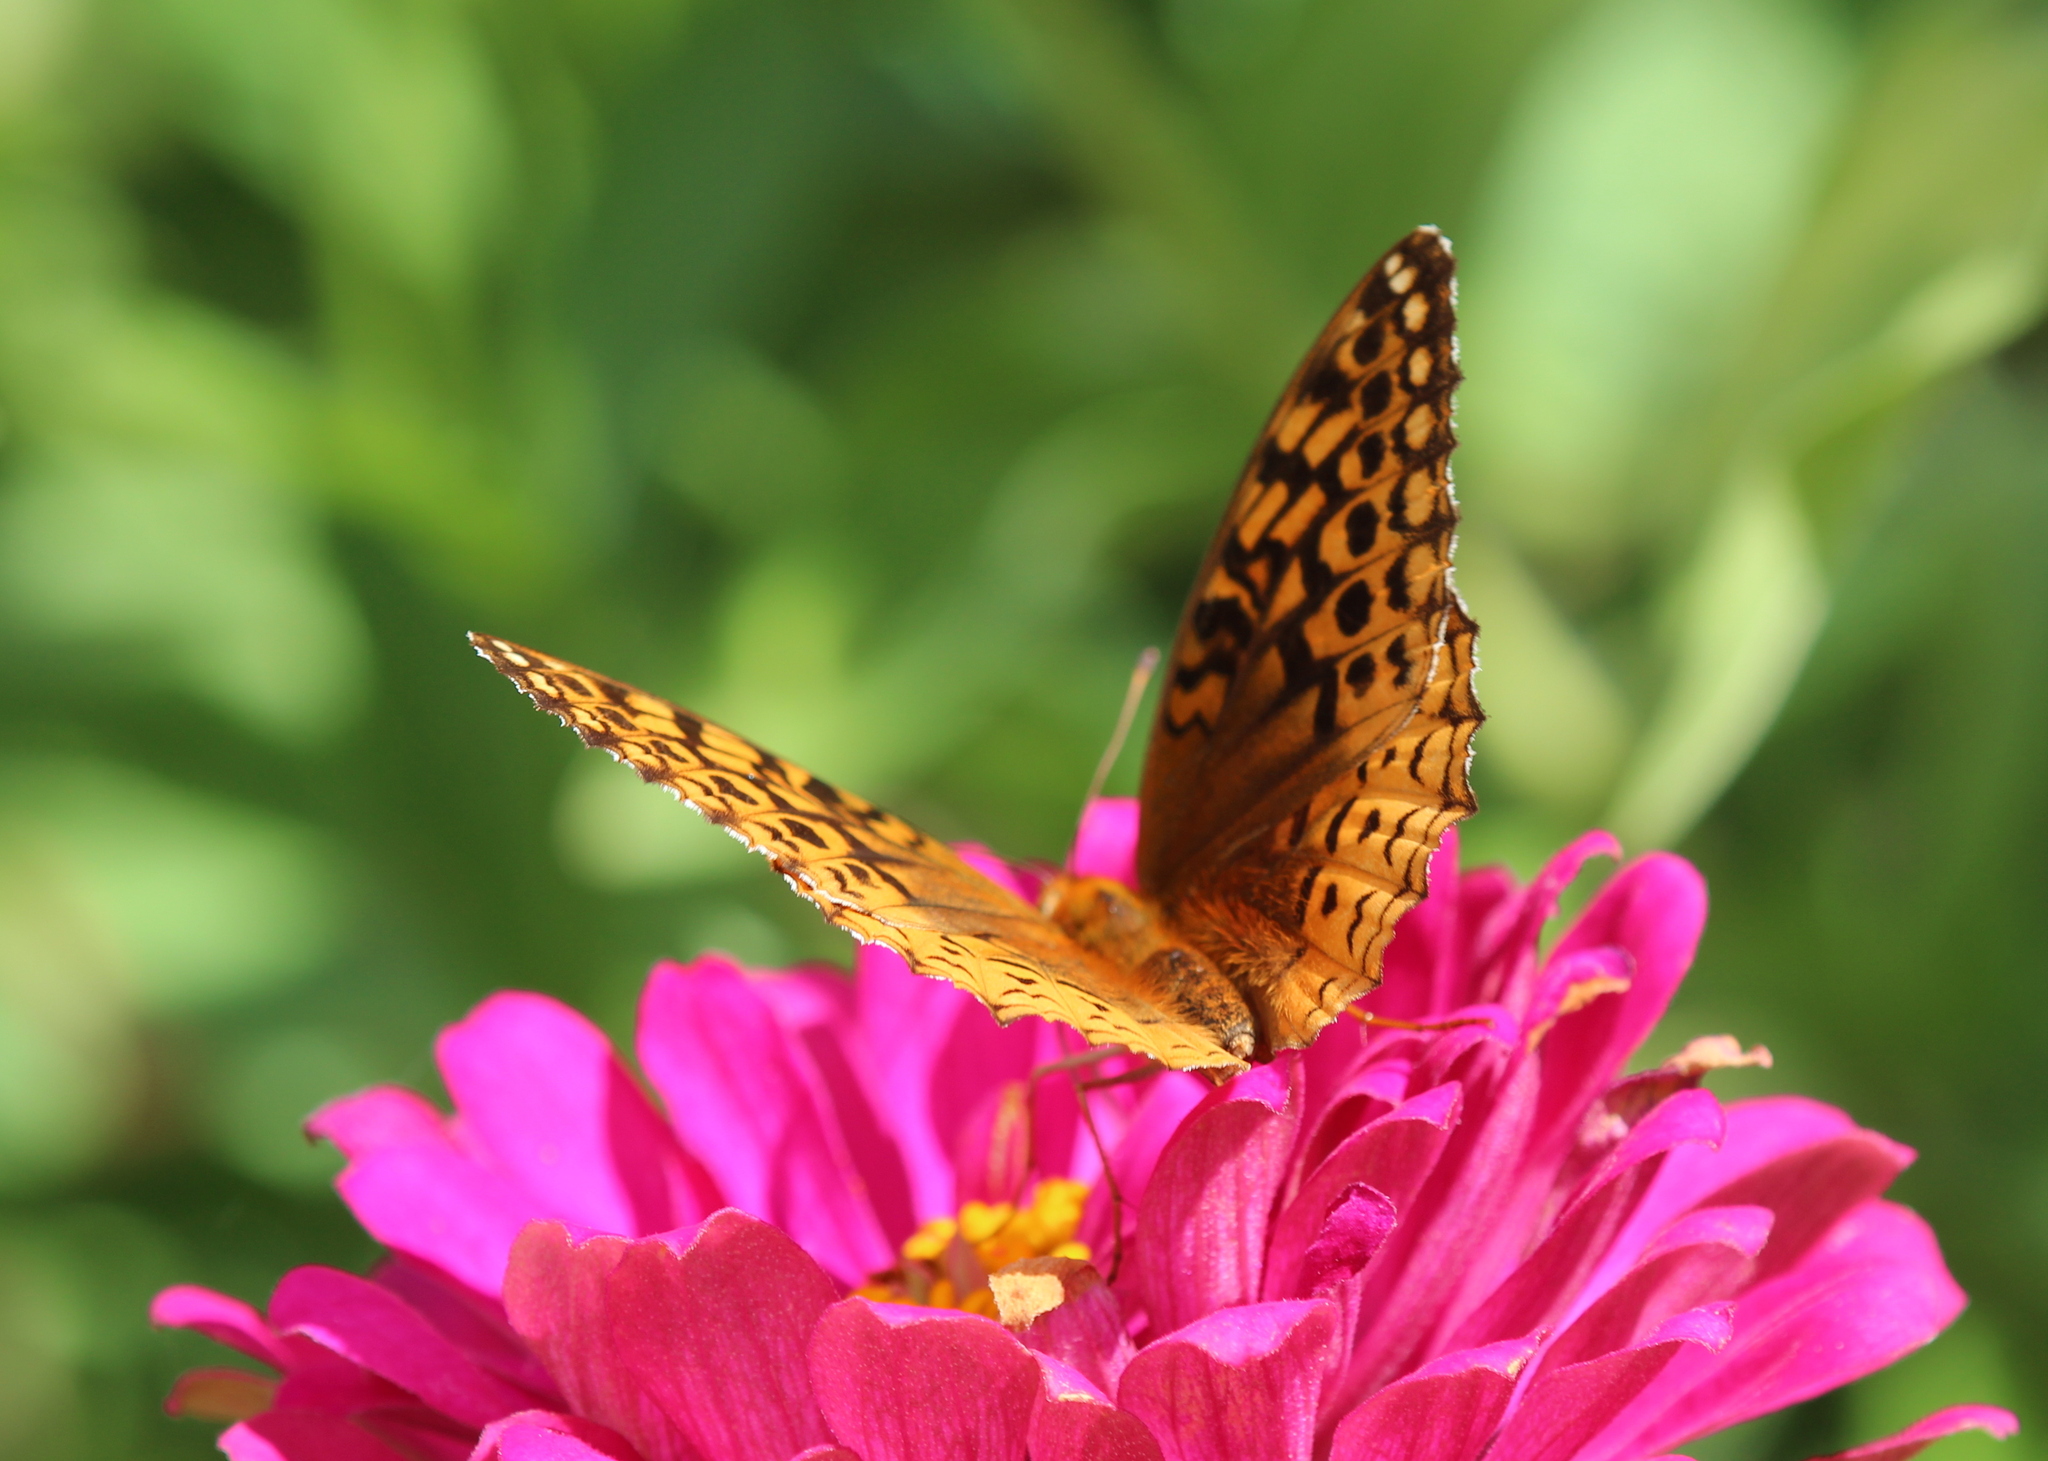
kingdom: Animalia
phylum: Arthropoda
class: Insecta
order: Lepidoptera
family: Nymphalidae
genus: Speyeria
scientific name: Speyeria cybele
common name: Great spangled fritillary
